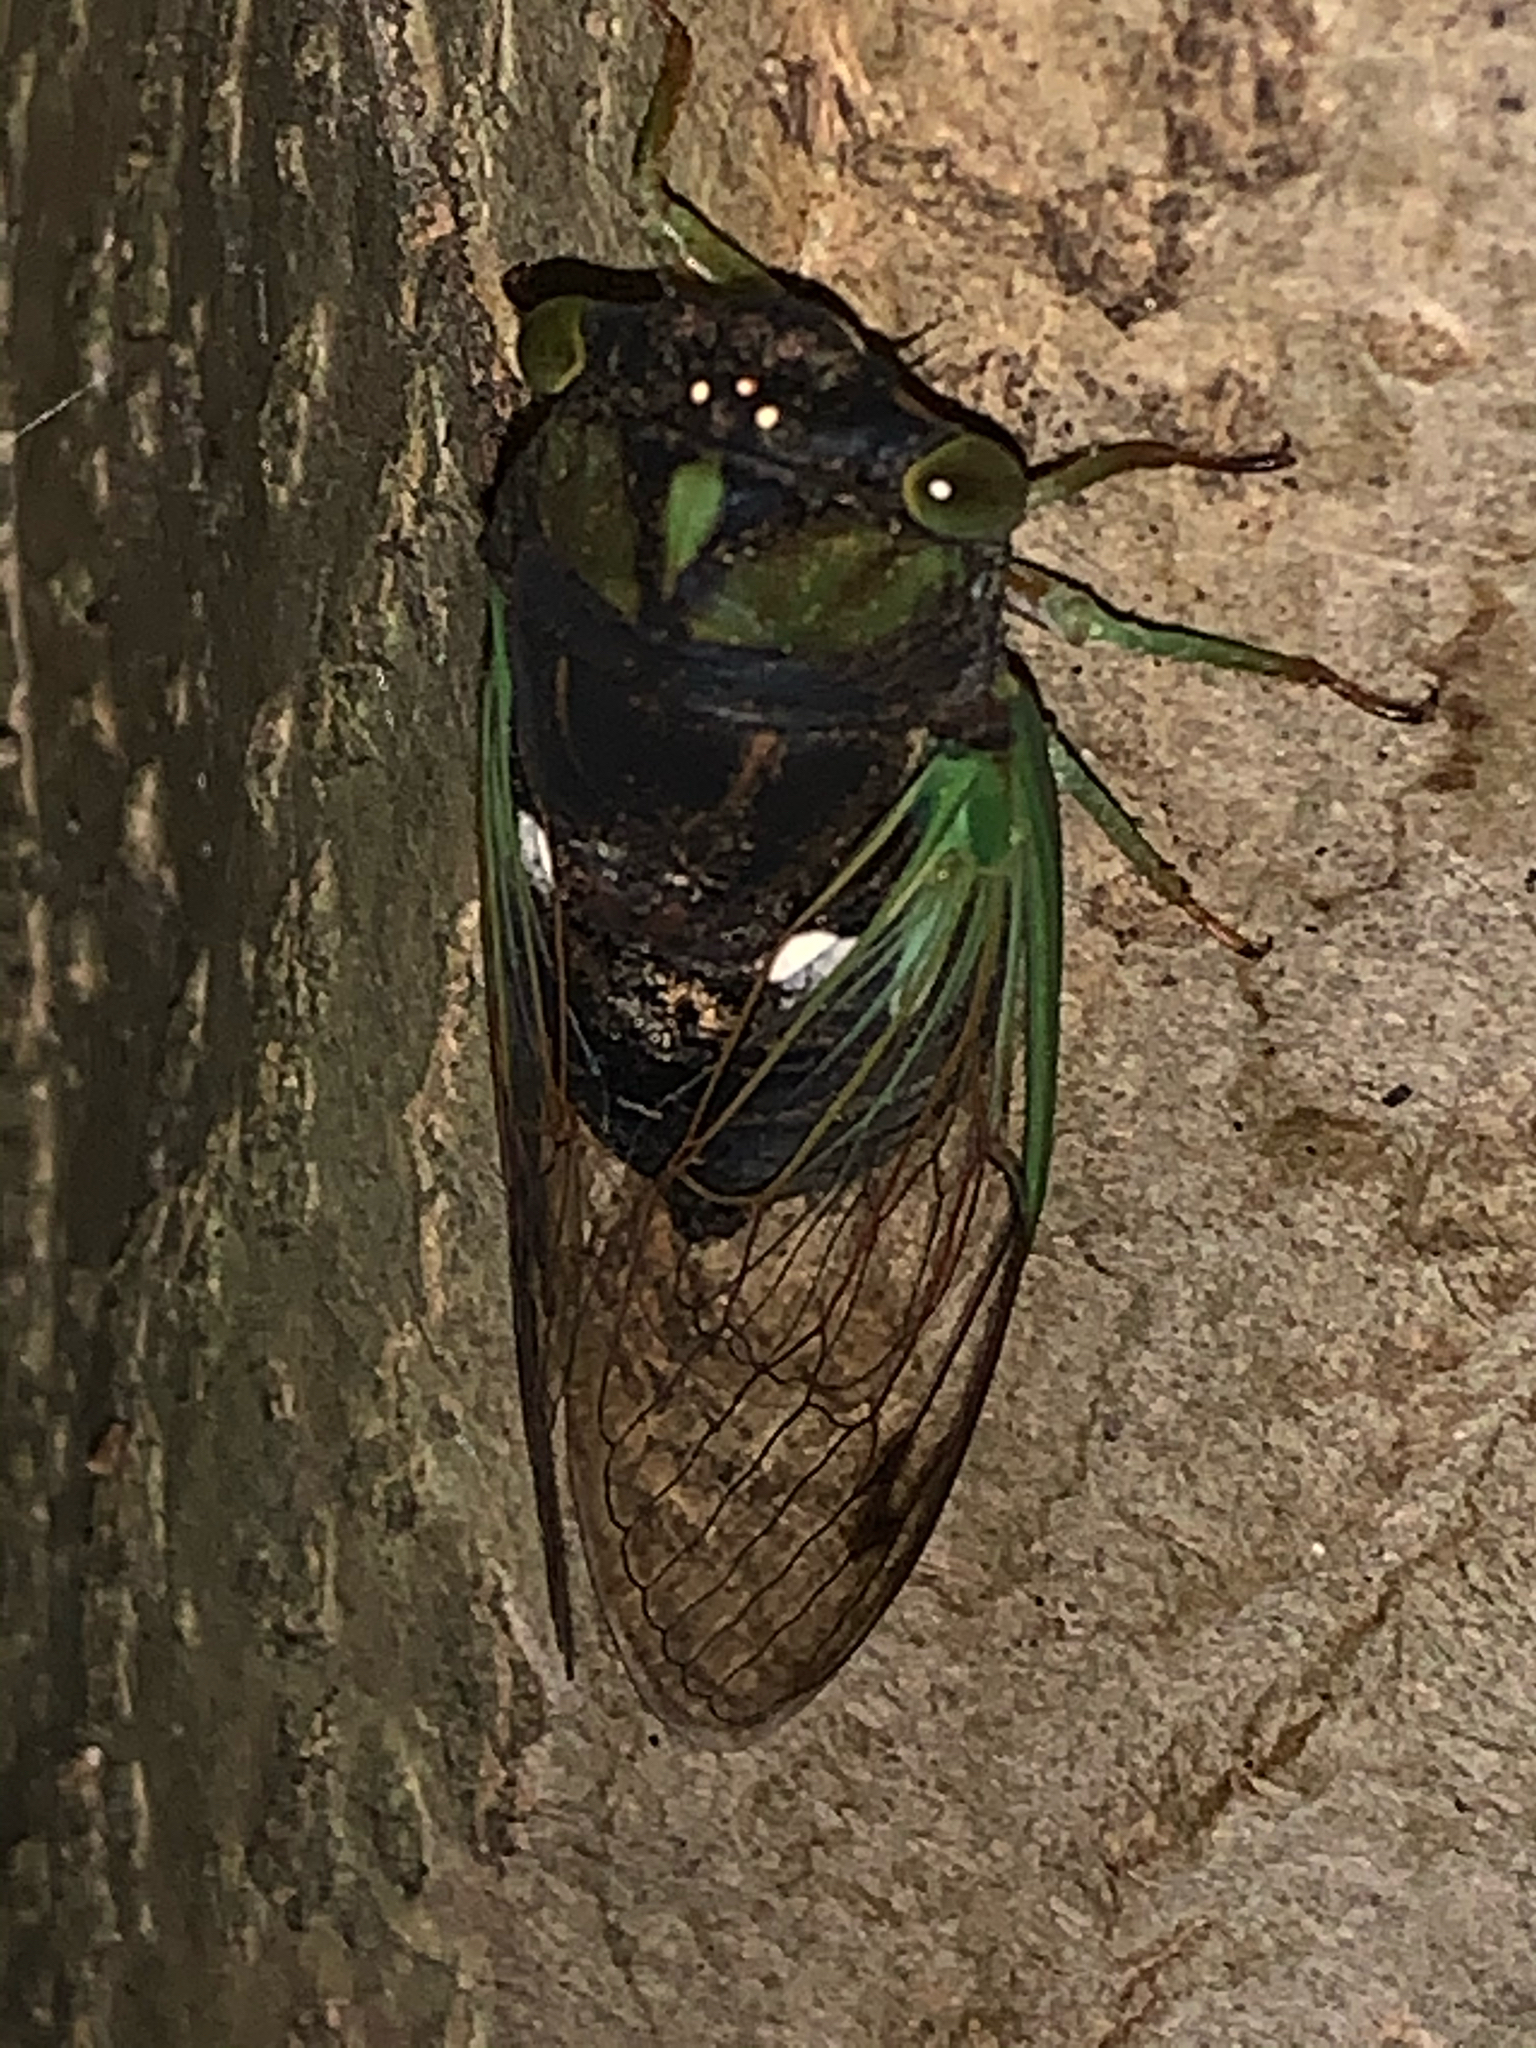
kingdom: Animalia
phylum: Arthropoda
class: Insecta
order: Hemiptera
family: Cicadidae
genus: Neotibicen
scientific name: Neotibicen tibicen
